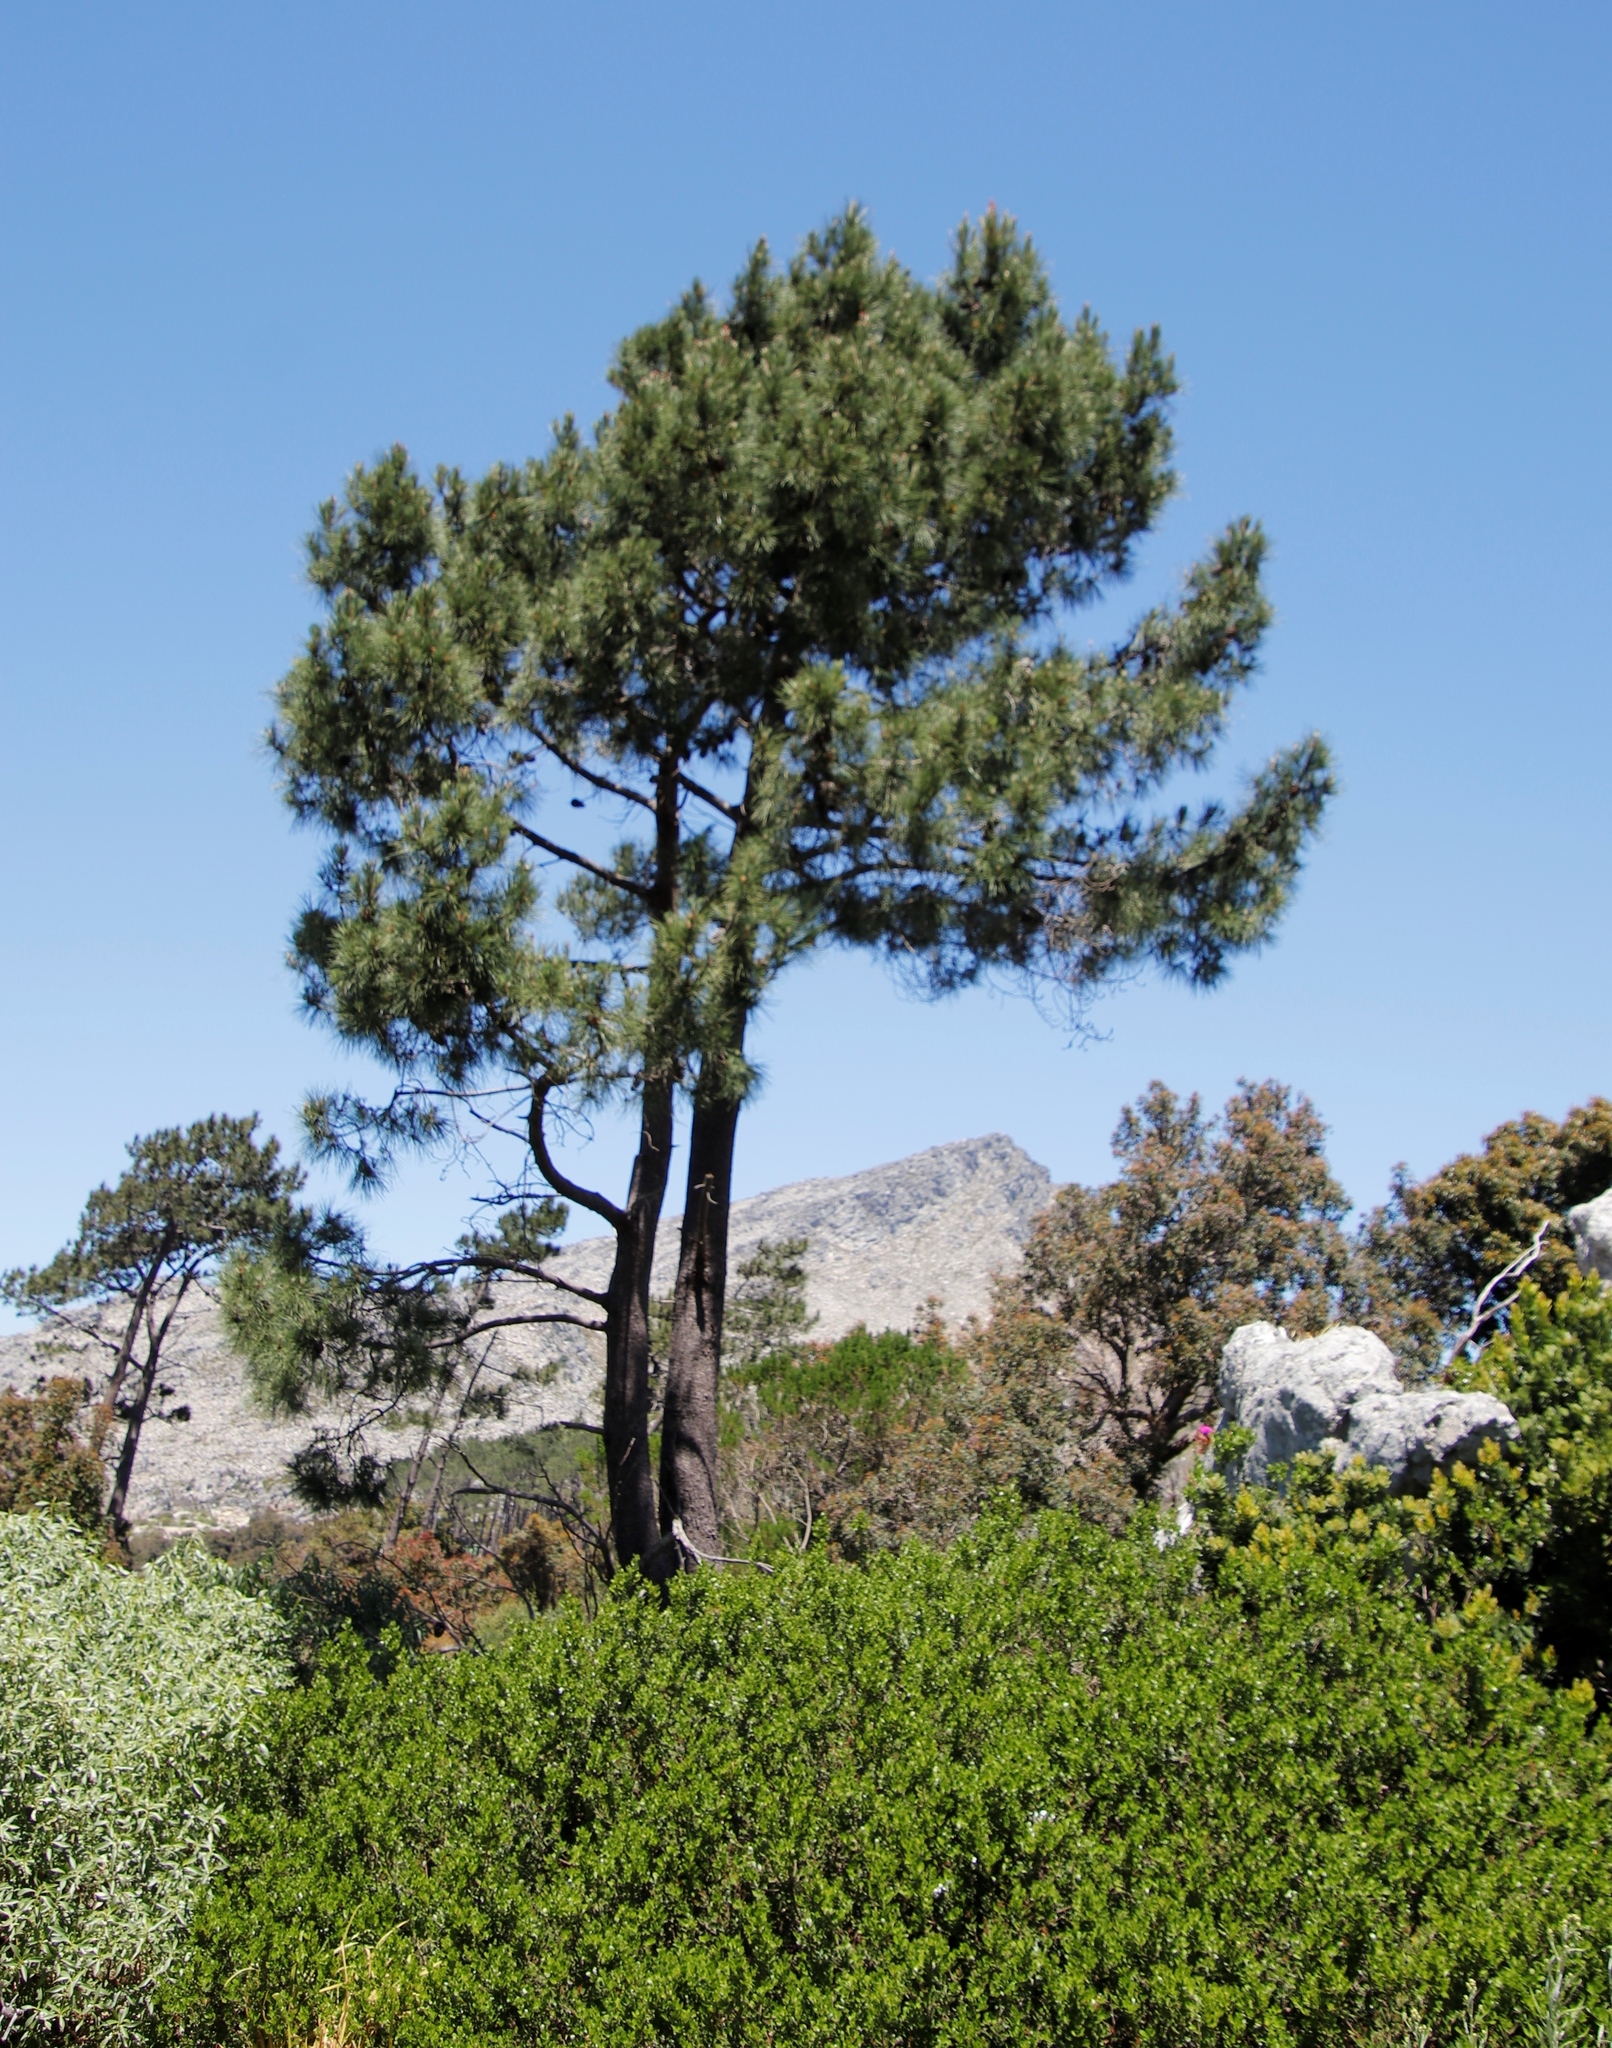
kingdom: Plantae
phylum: Tracheophyta
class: Pinopsida
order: Pinales
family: Pinaceae
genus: Pinus
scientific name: Pinus pinaster
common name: Maritime pine
